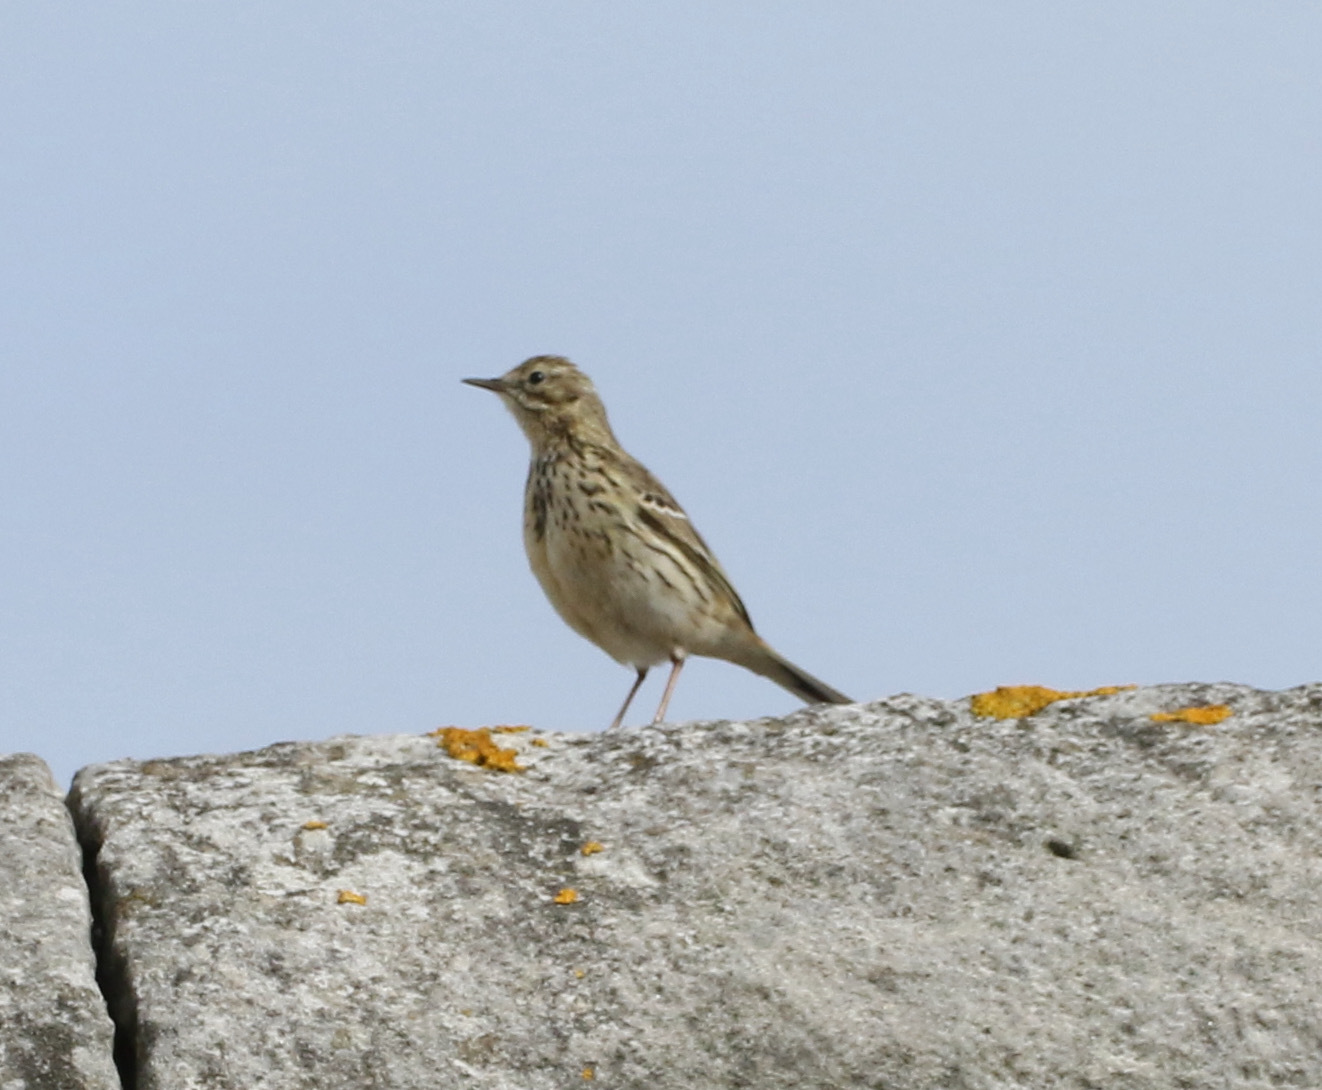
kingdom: Animalia
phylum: Chordata
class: Aves
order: Passeriformes
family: Motacillidae
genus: Anthus
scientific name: Anthus pratensis
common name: Meadow pipit
